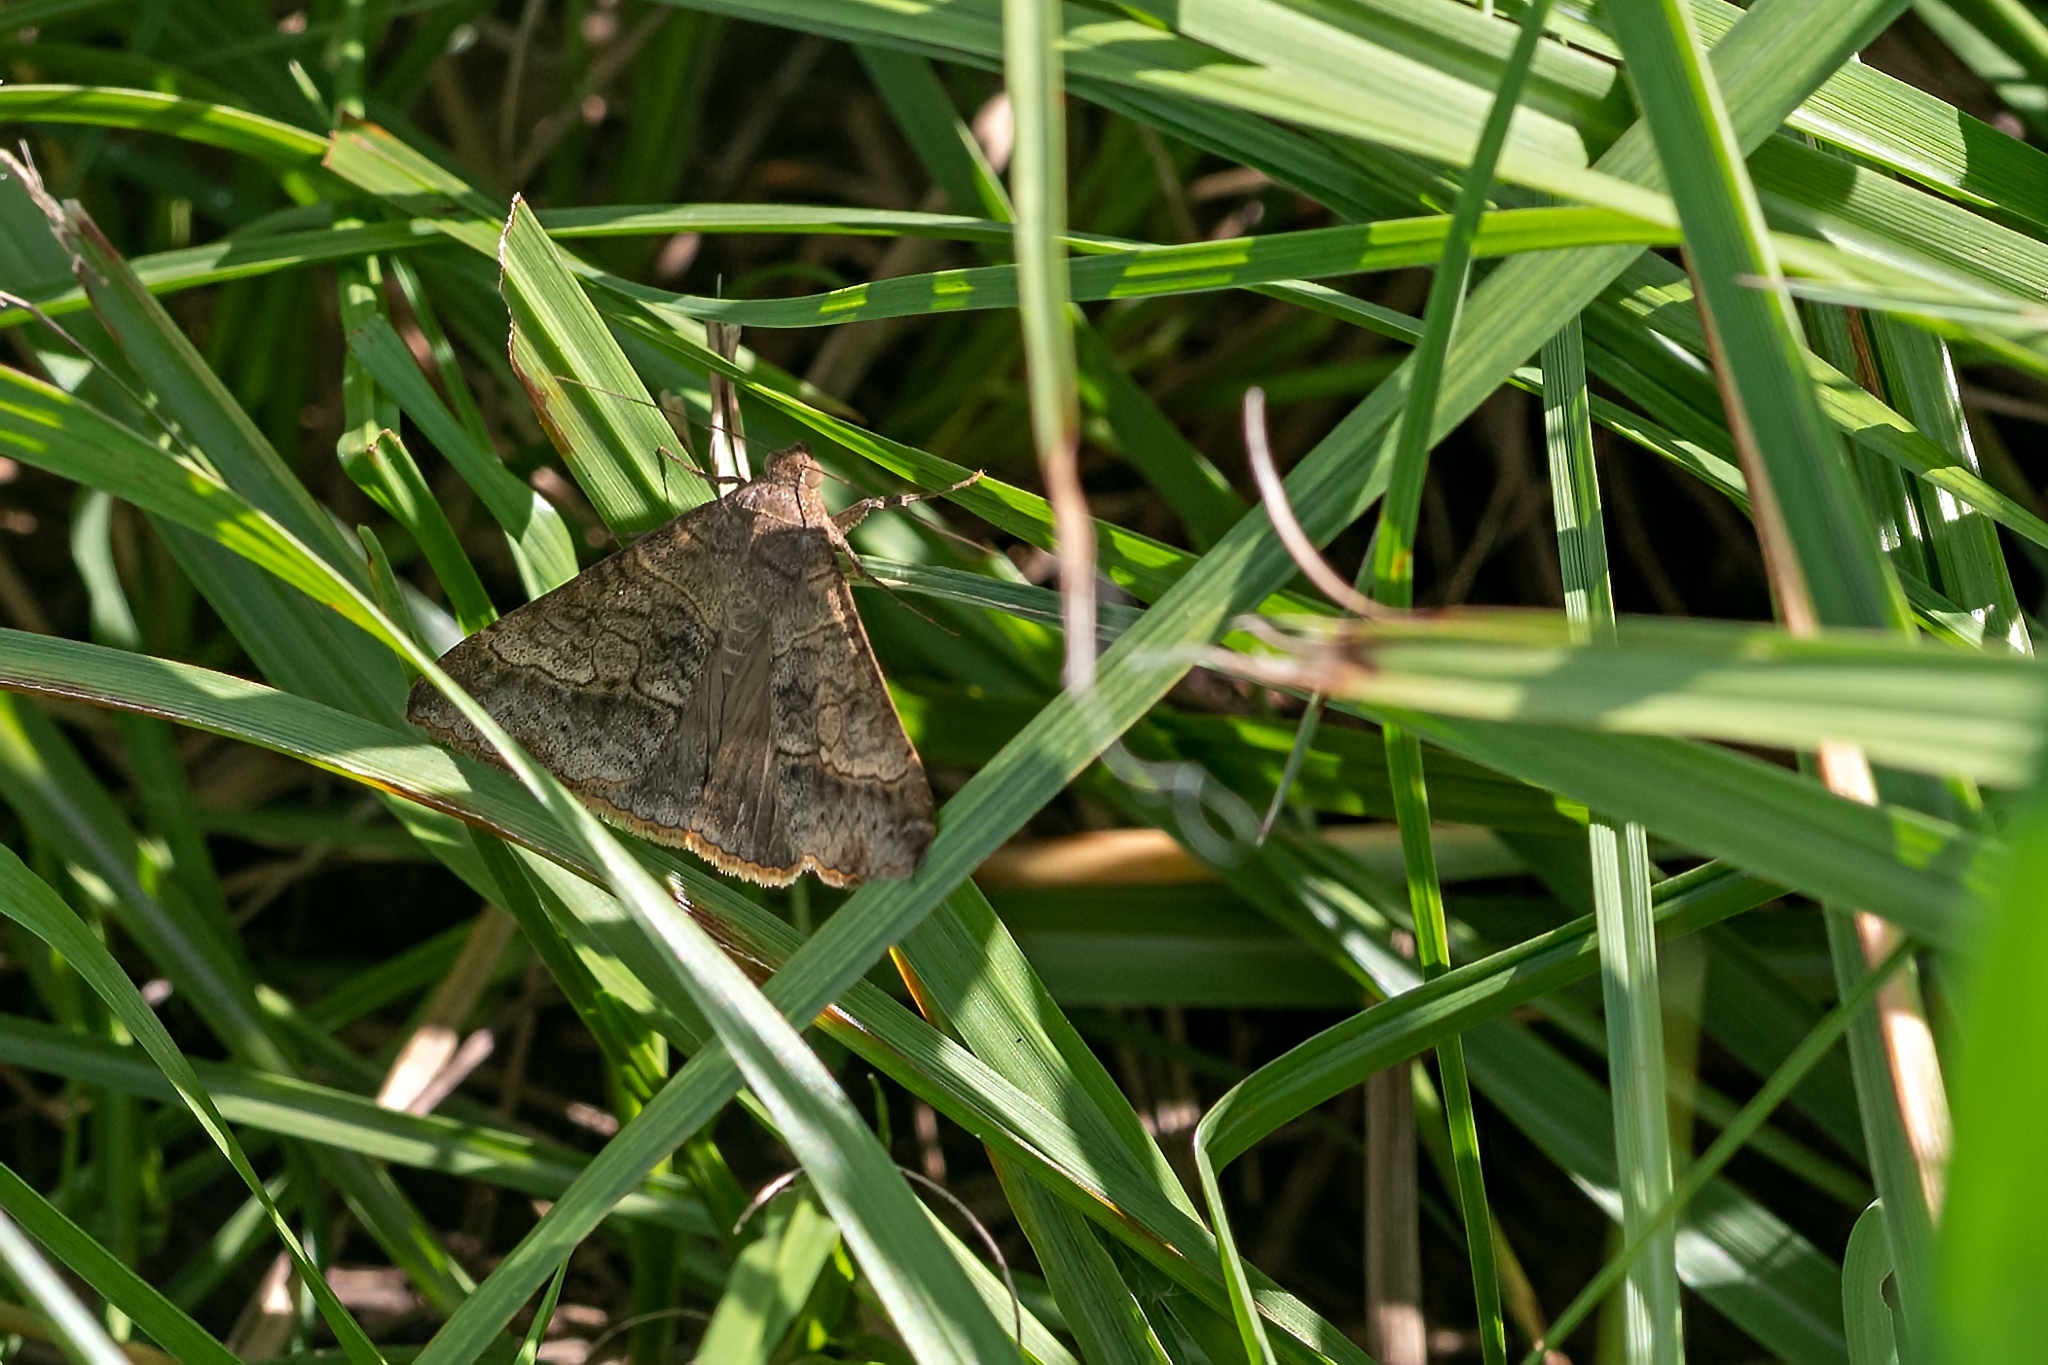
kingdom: Animalia
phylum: Arthropoda
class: Insecta
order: Lepidoptera
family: Erebidae
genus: Mocis
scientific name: Mocis latipes
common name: Striped grass looper
